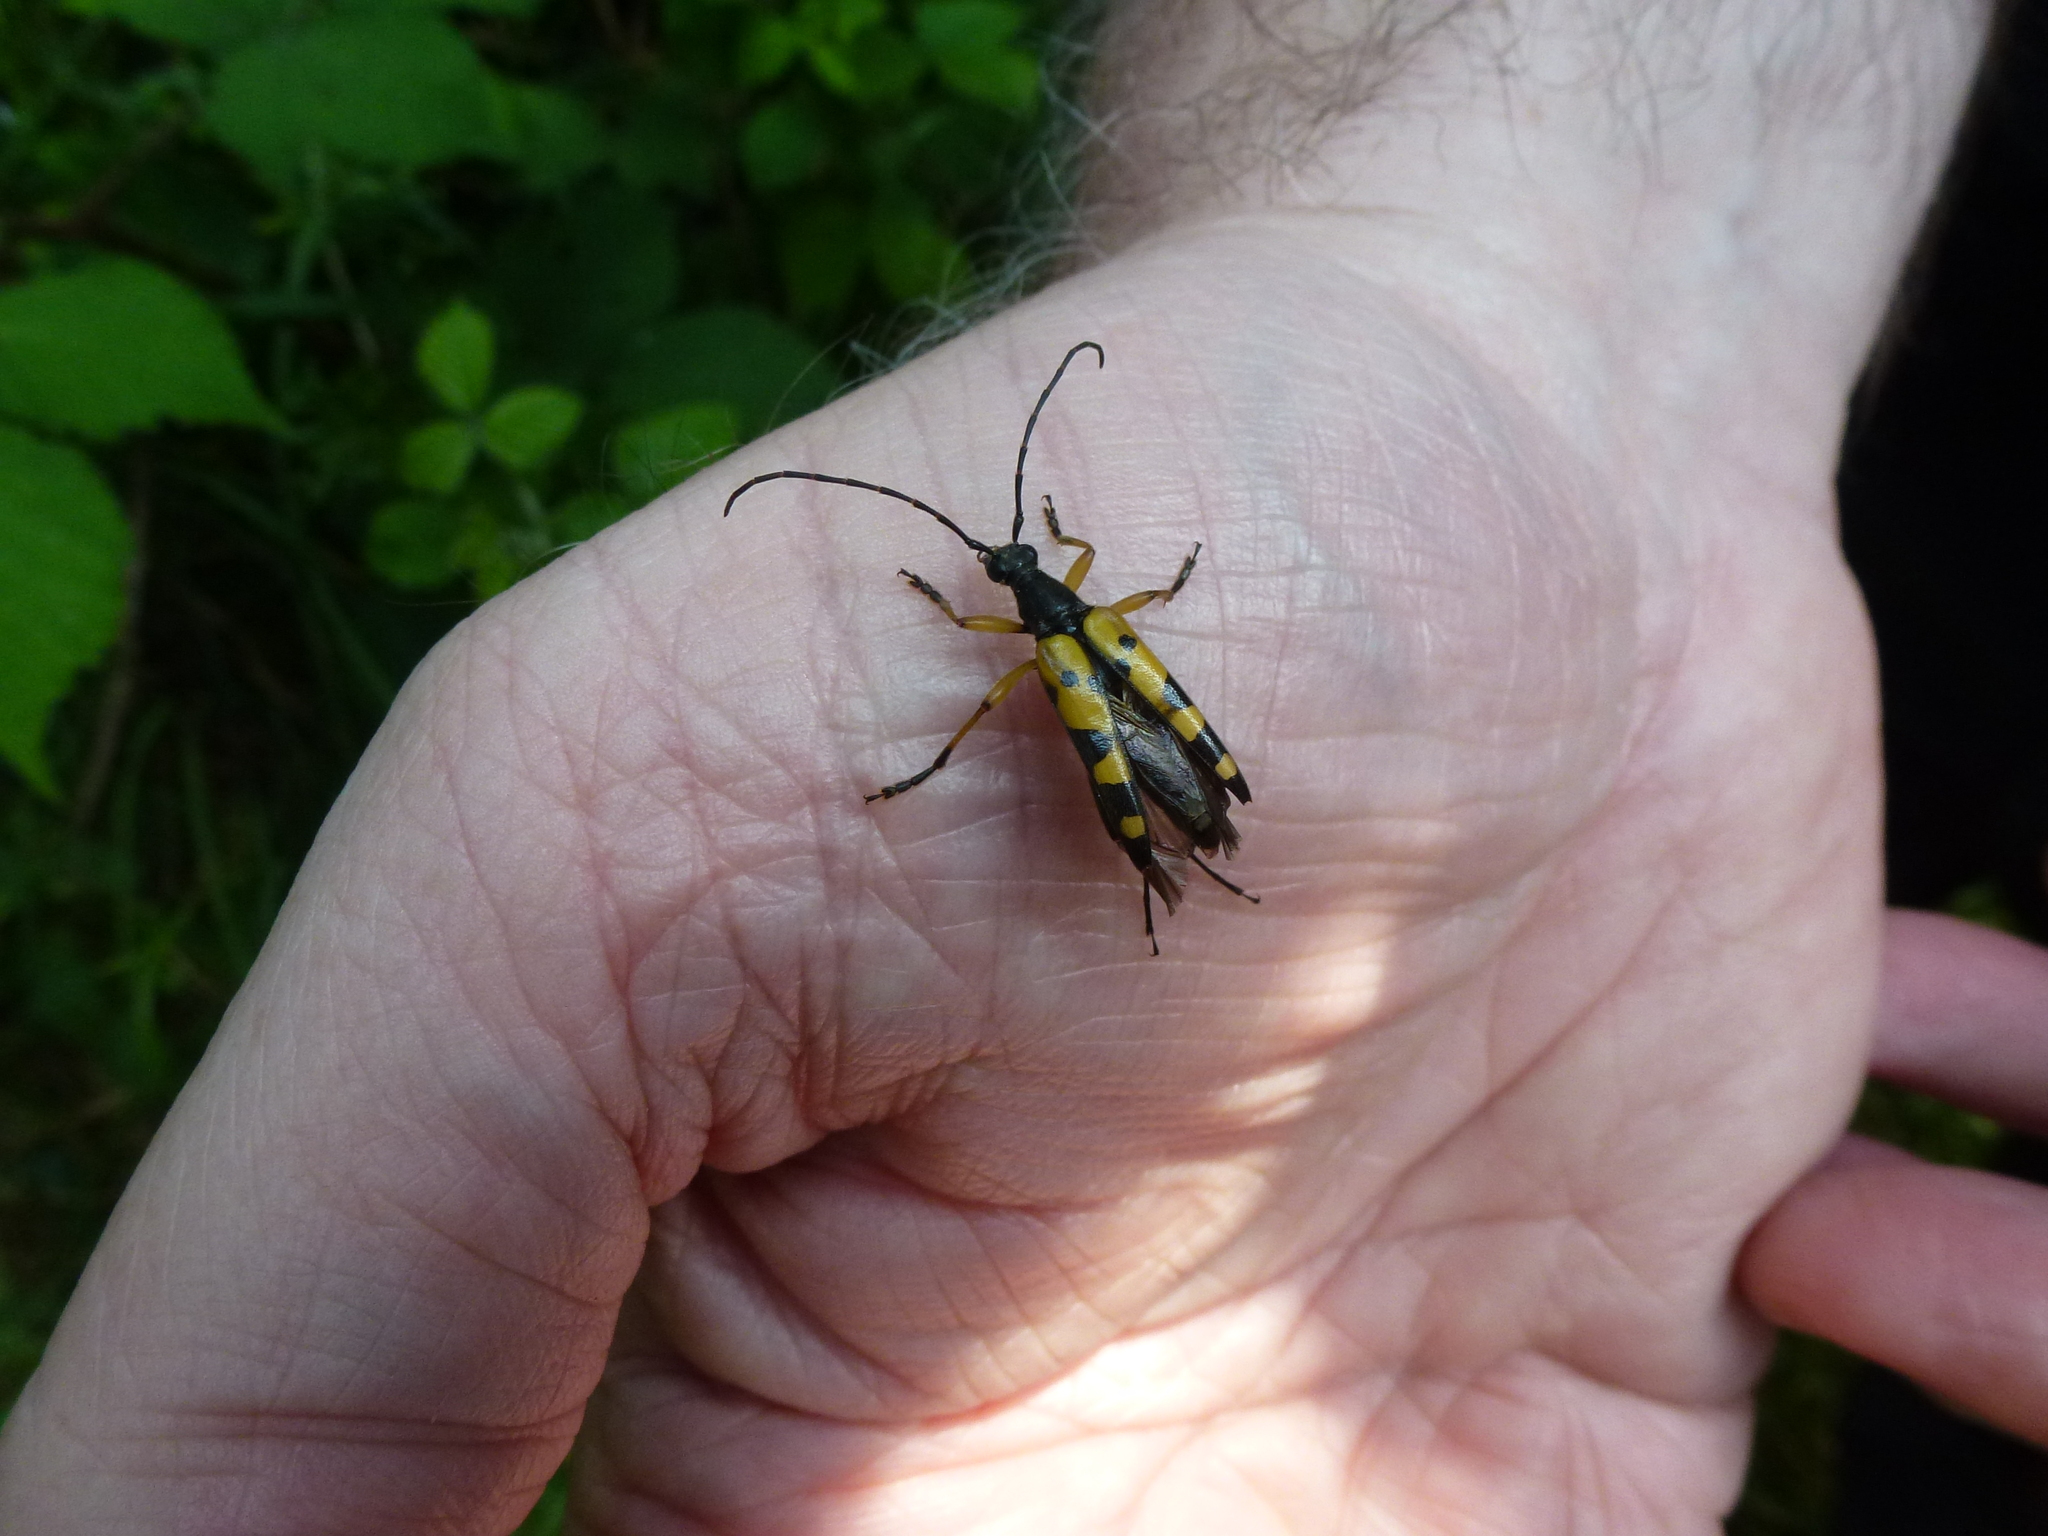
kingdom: Animalia
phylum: Arthropoda
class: Insecta
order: Coleoptera
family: Cerambycidae
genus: Rutpela
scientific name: Rutpela maculata
